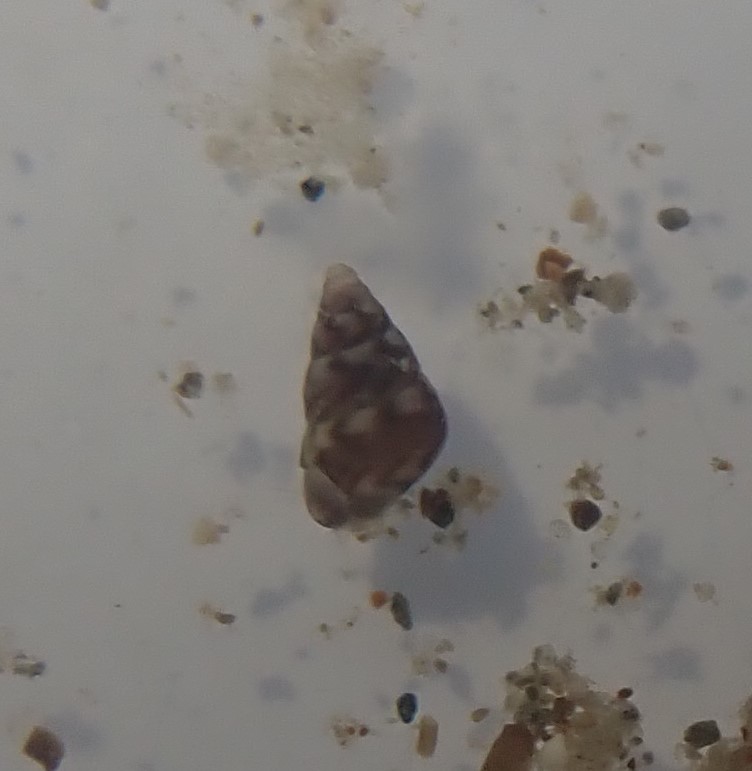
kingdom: Animalia
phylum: Mollusca
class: Gastropoda
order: Littorinimorpha
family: Eatoniellidae
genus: Eatoniella
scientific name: Eatoniella limbata
